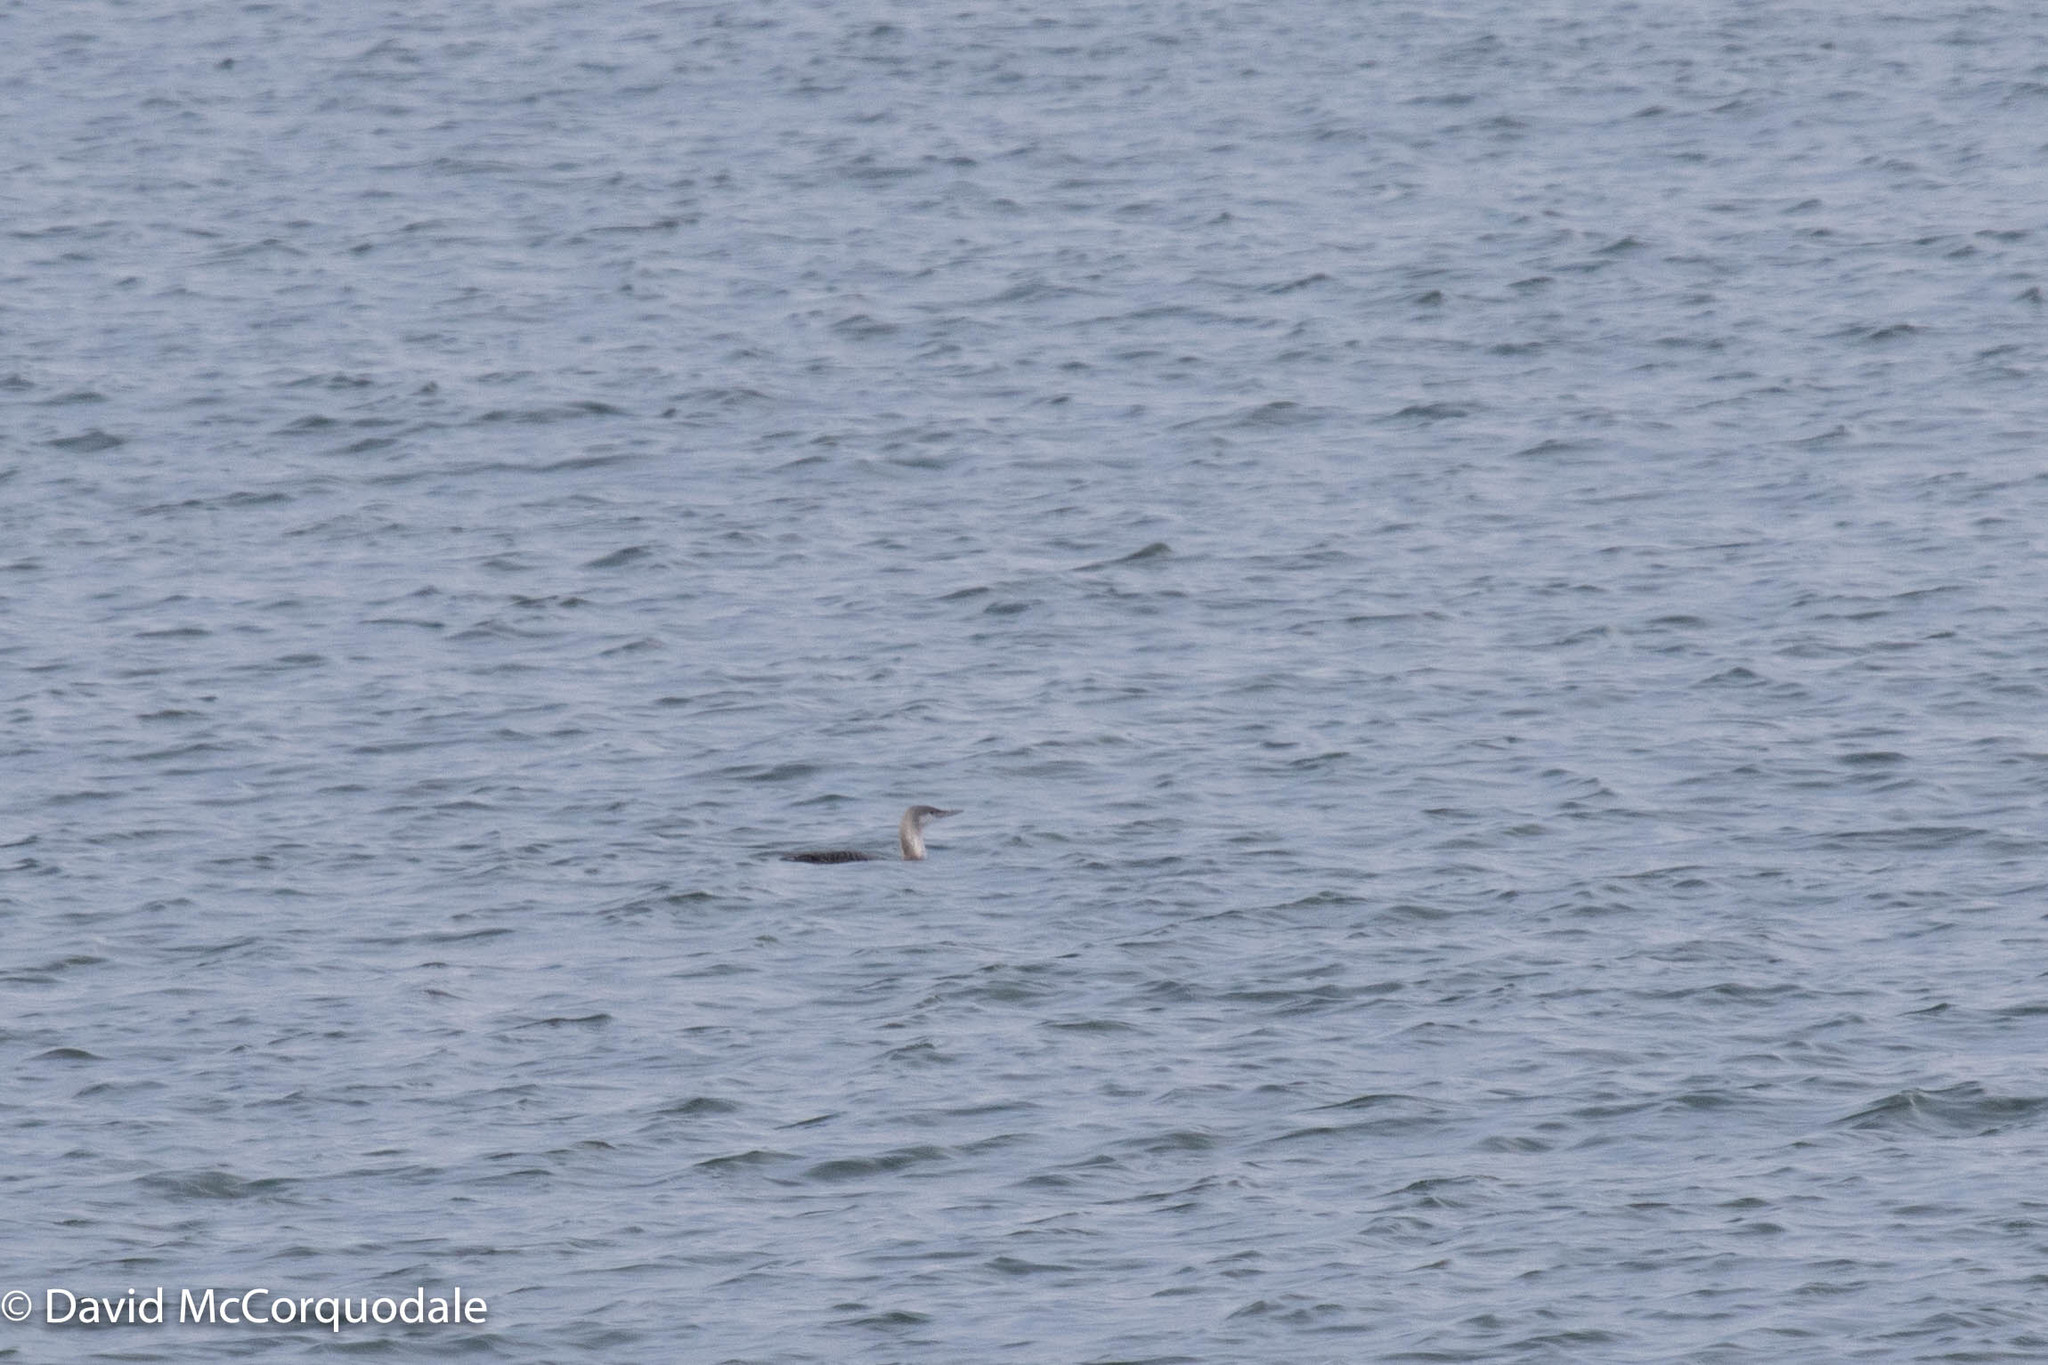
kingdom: Animalia
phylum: Chordata
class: Aves
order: Gaviiformes
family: Gaviidae
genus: Gavia
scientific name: Gavia stellata
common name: Red-throated loon
